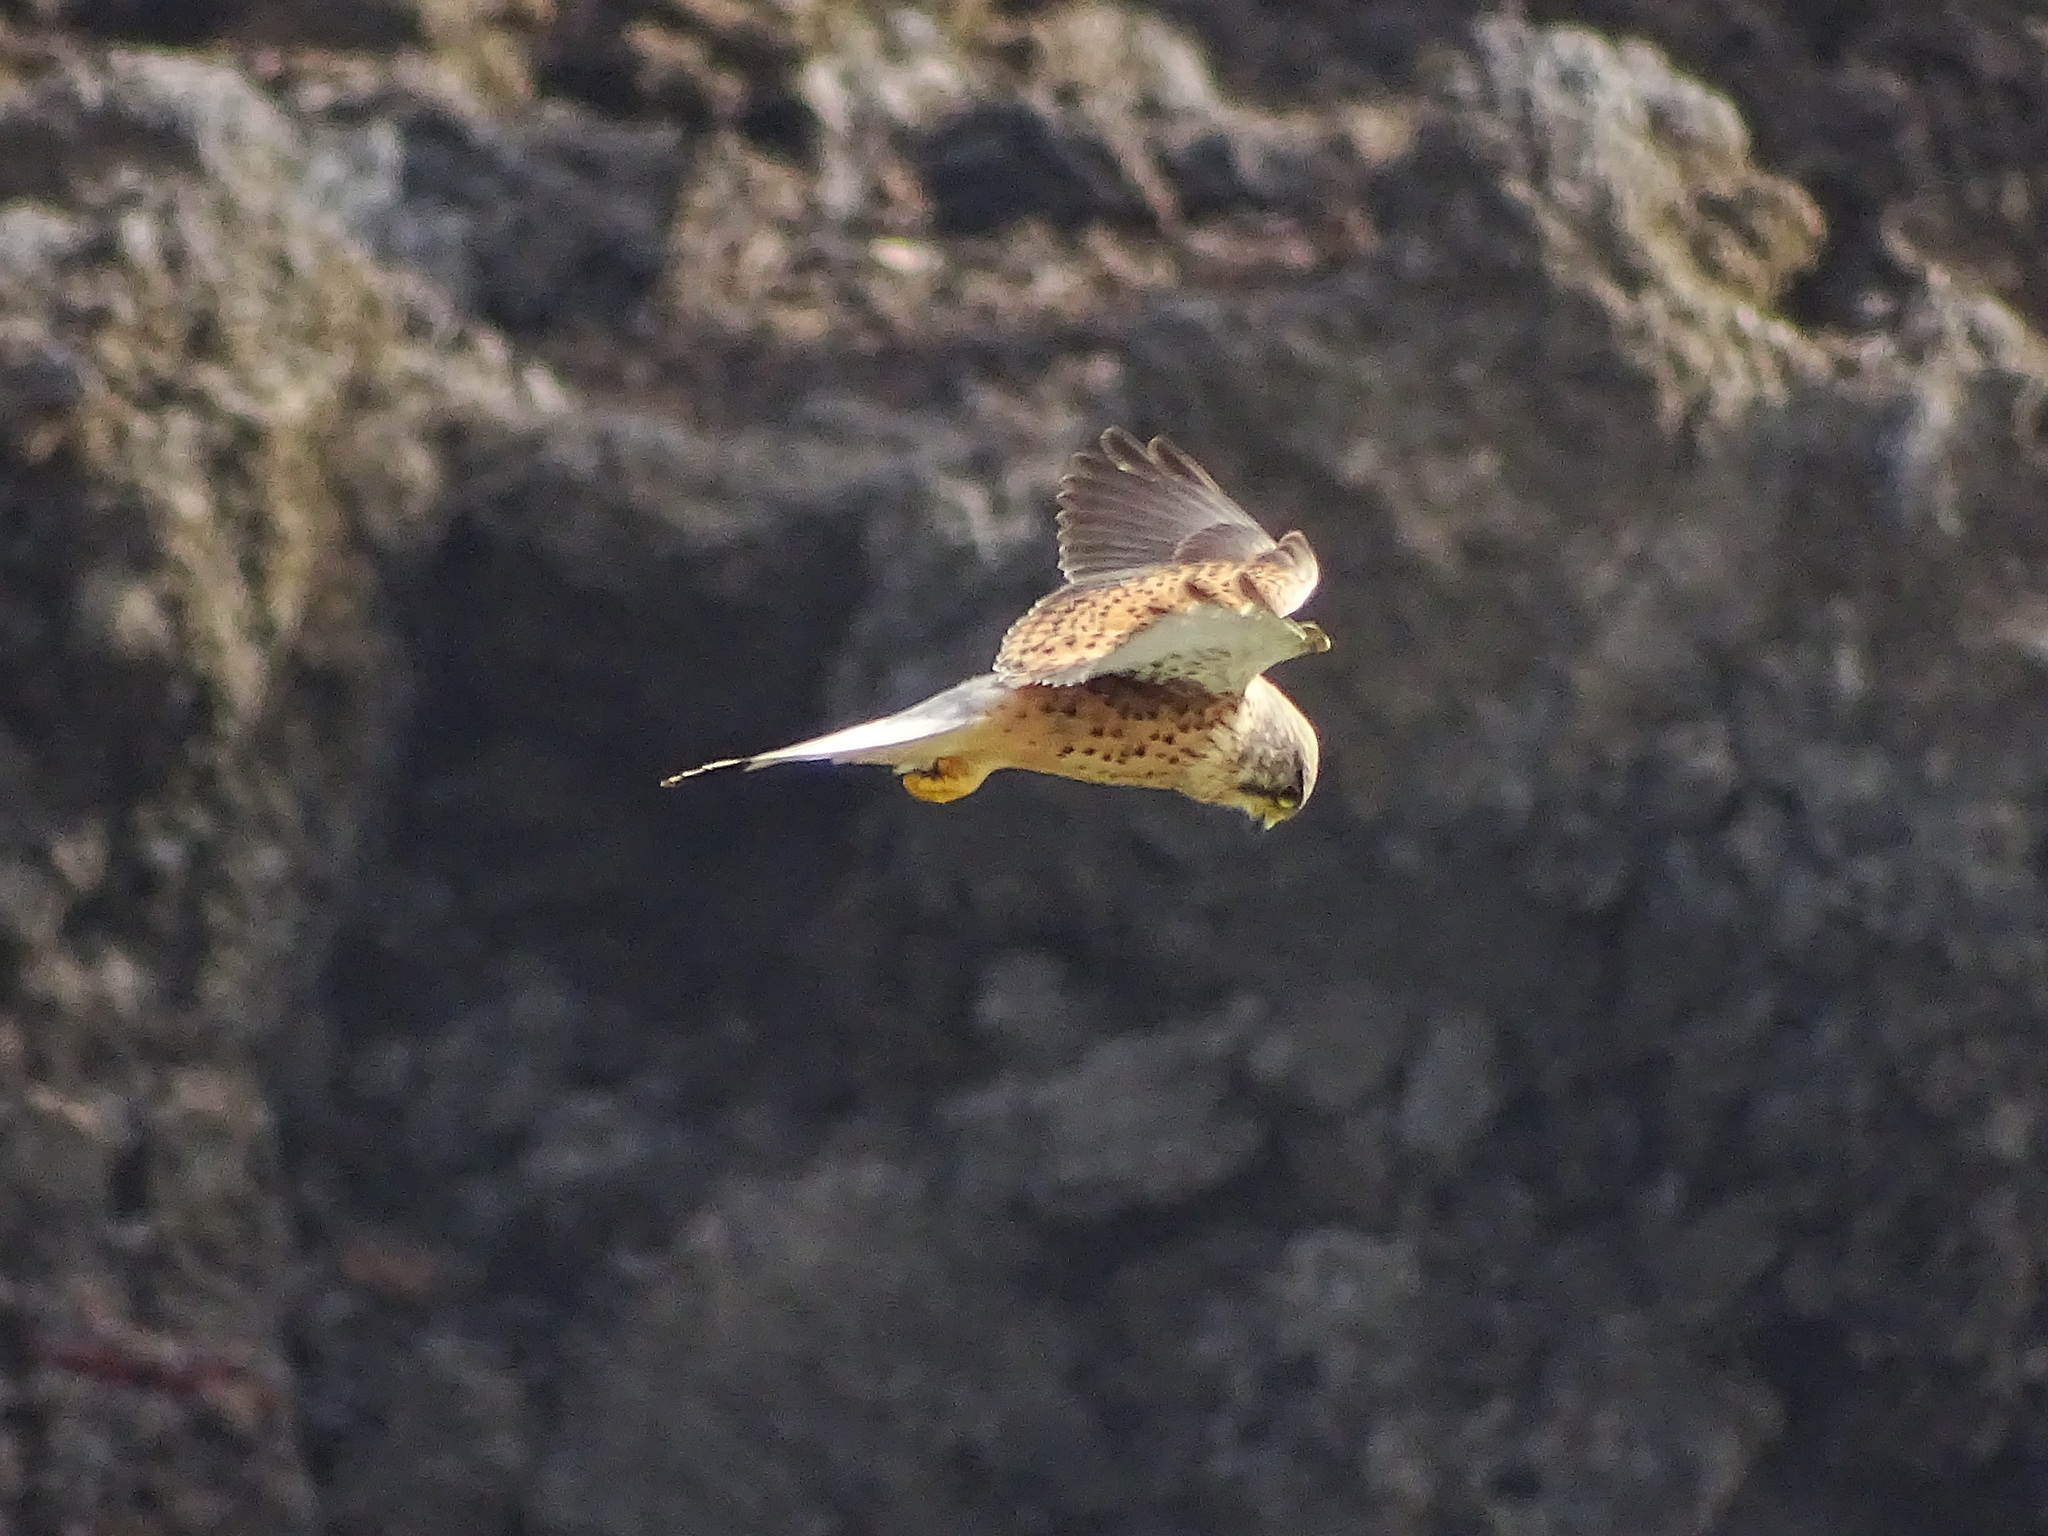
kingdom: Animalia
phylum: Chordata
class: Aves
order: Falconiformes
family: Falconidae
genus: Falco
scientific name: Falco tinnunculus
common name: Common kestrel
